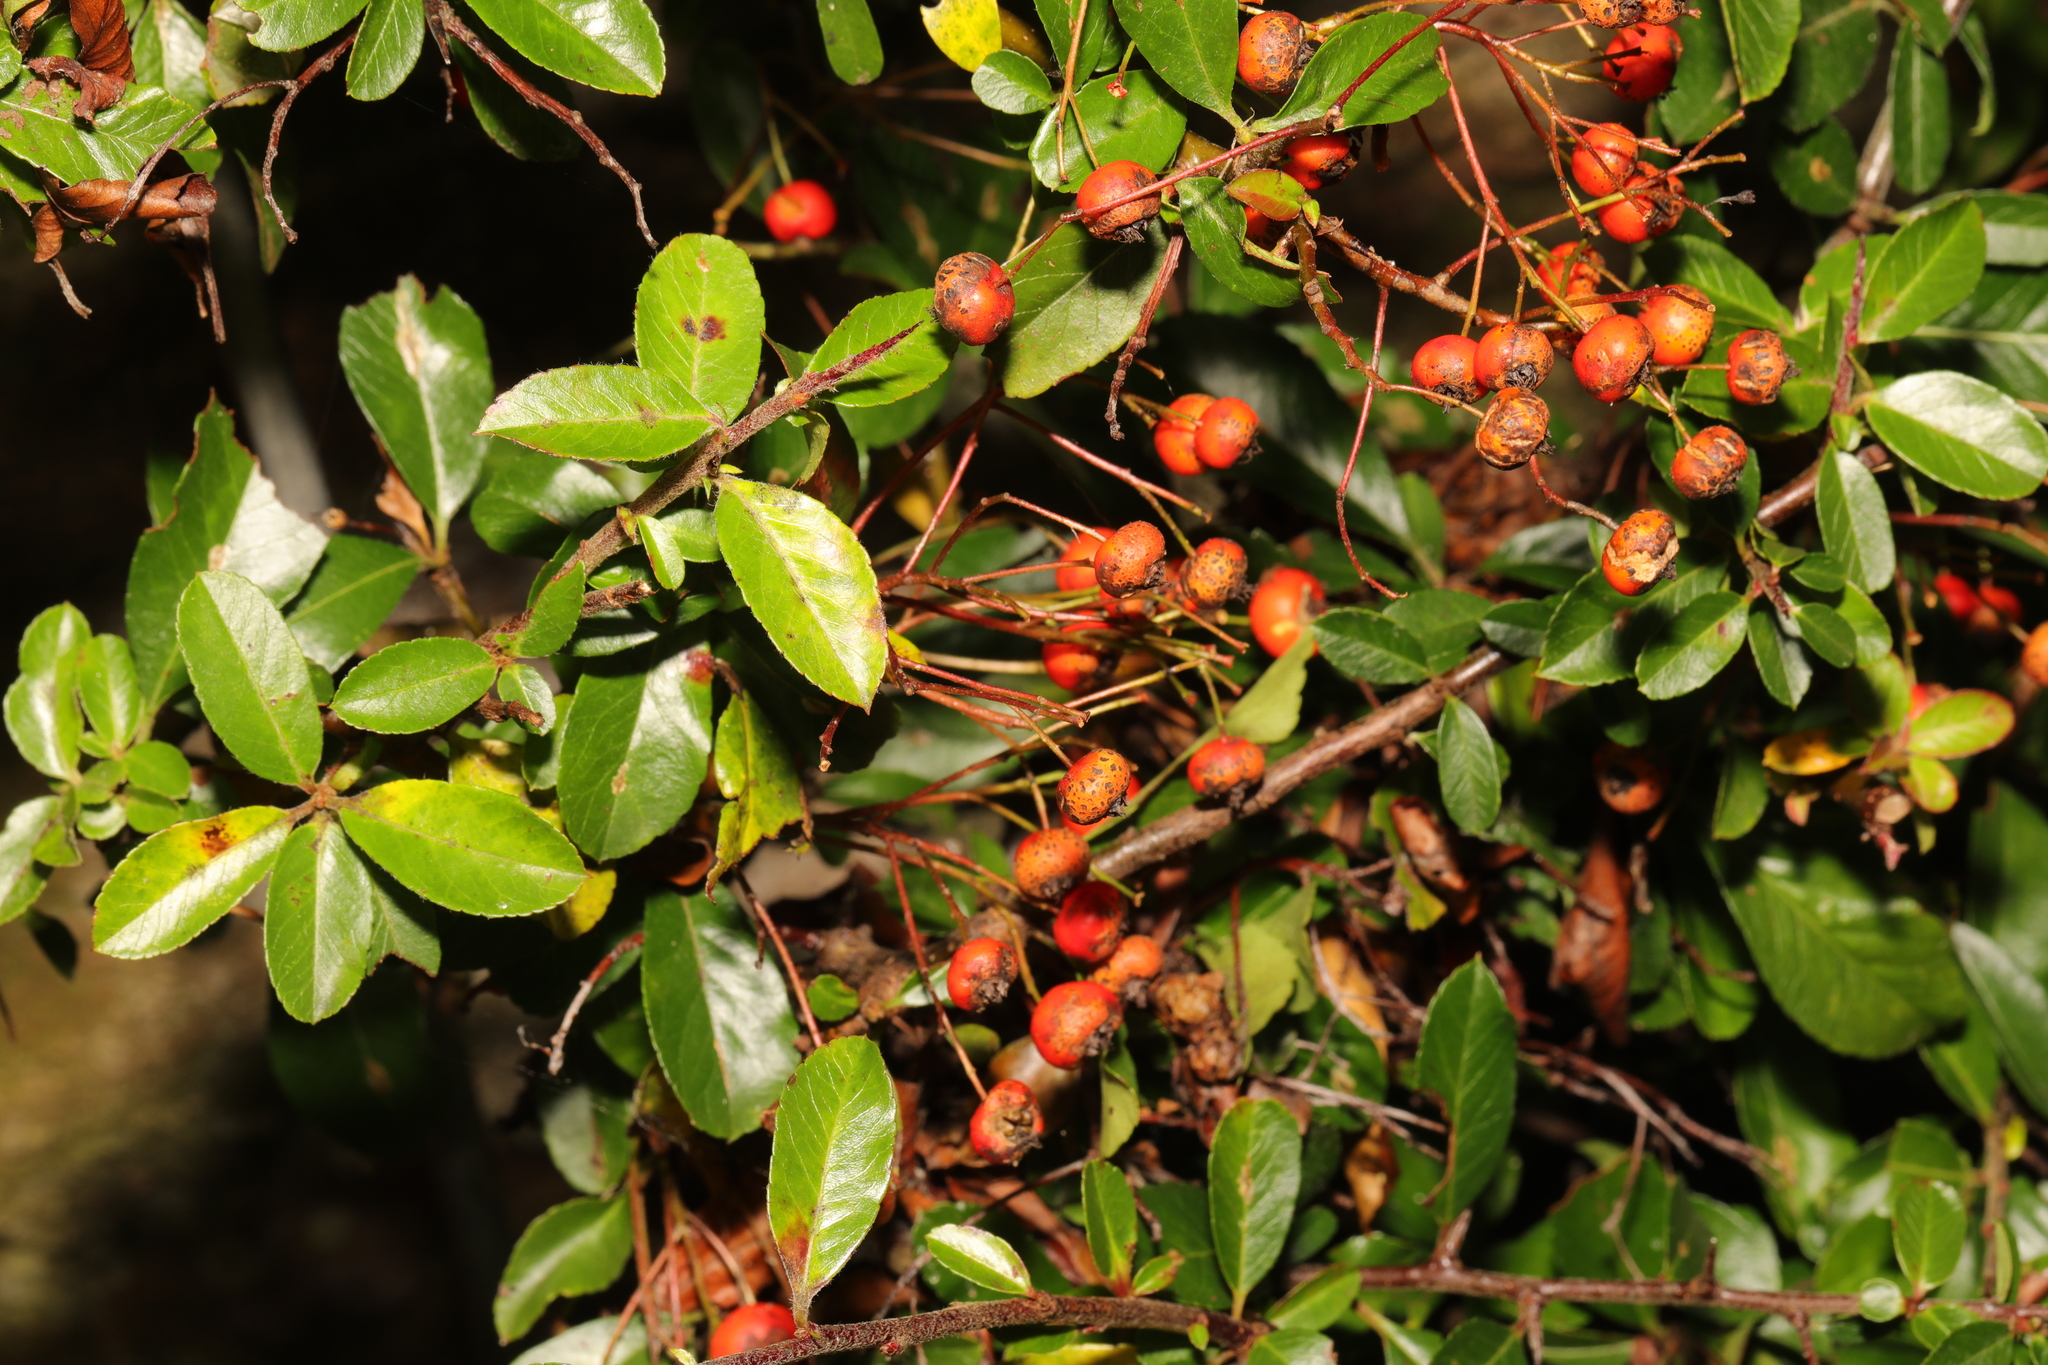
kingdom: Plantae
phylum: Tracheophyta
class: Magnoliopsida
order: Rosales
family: Rosaceae
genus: Pyracantha
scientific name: Pyracantha coccinea
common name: Firethorn
